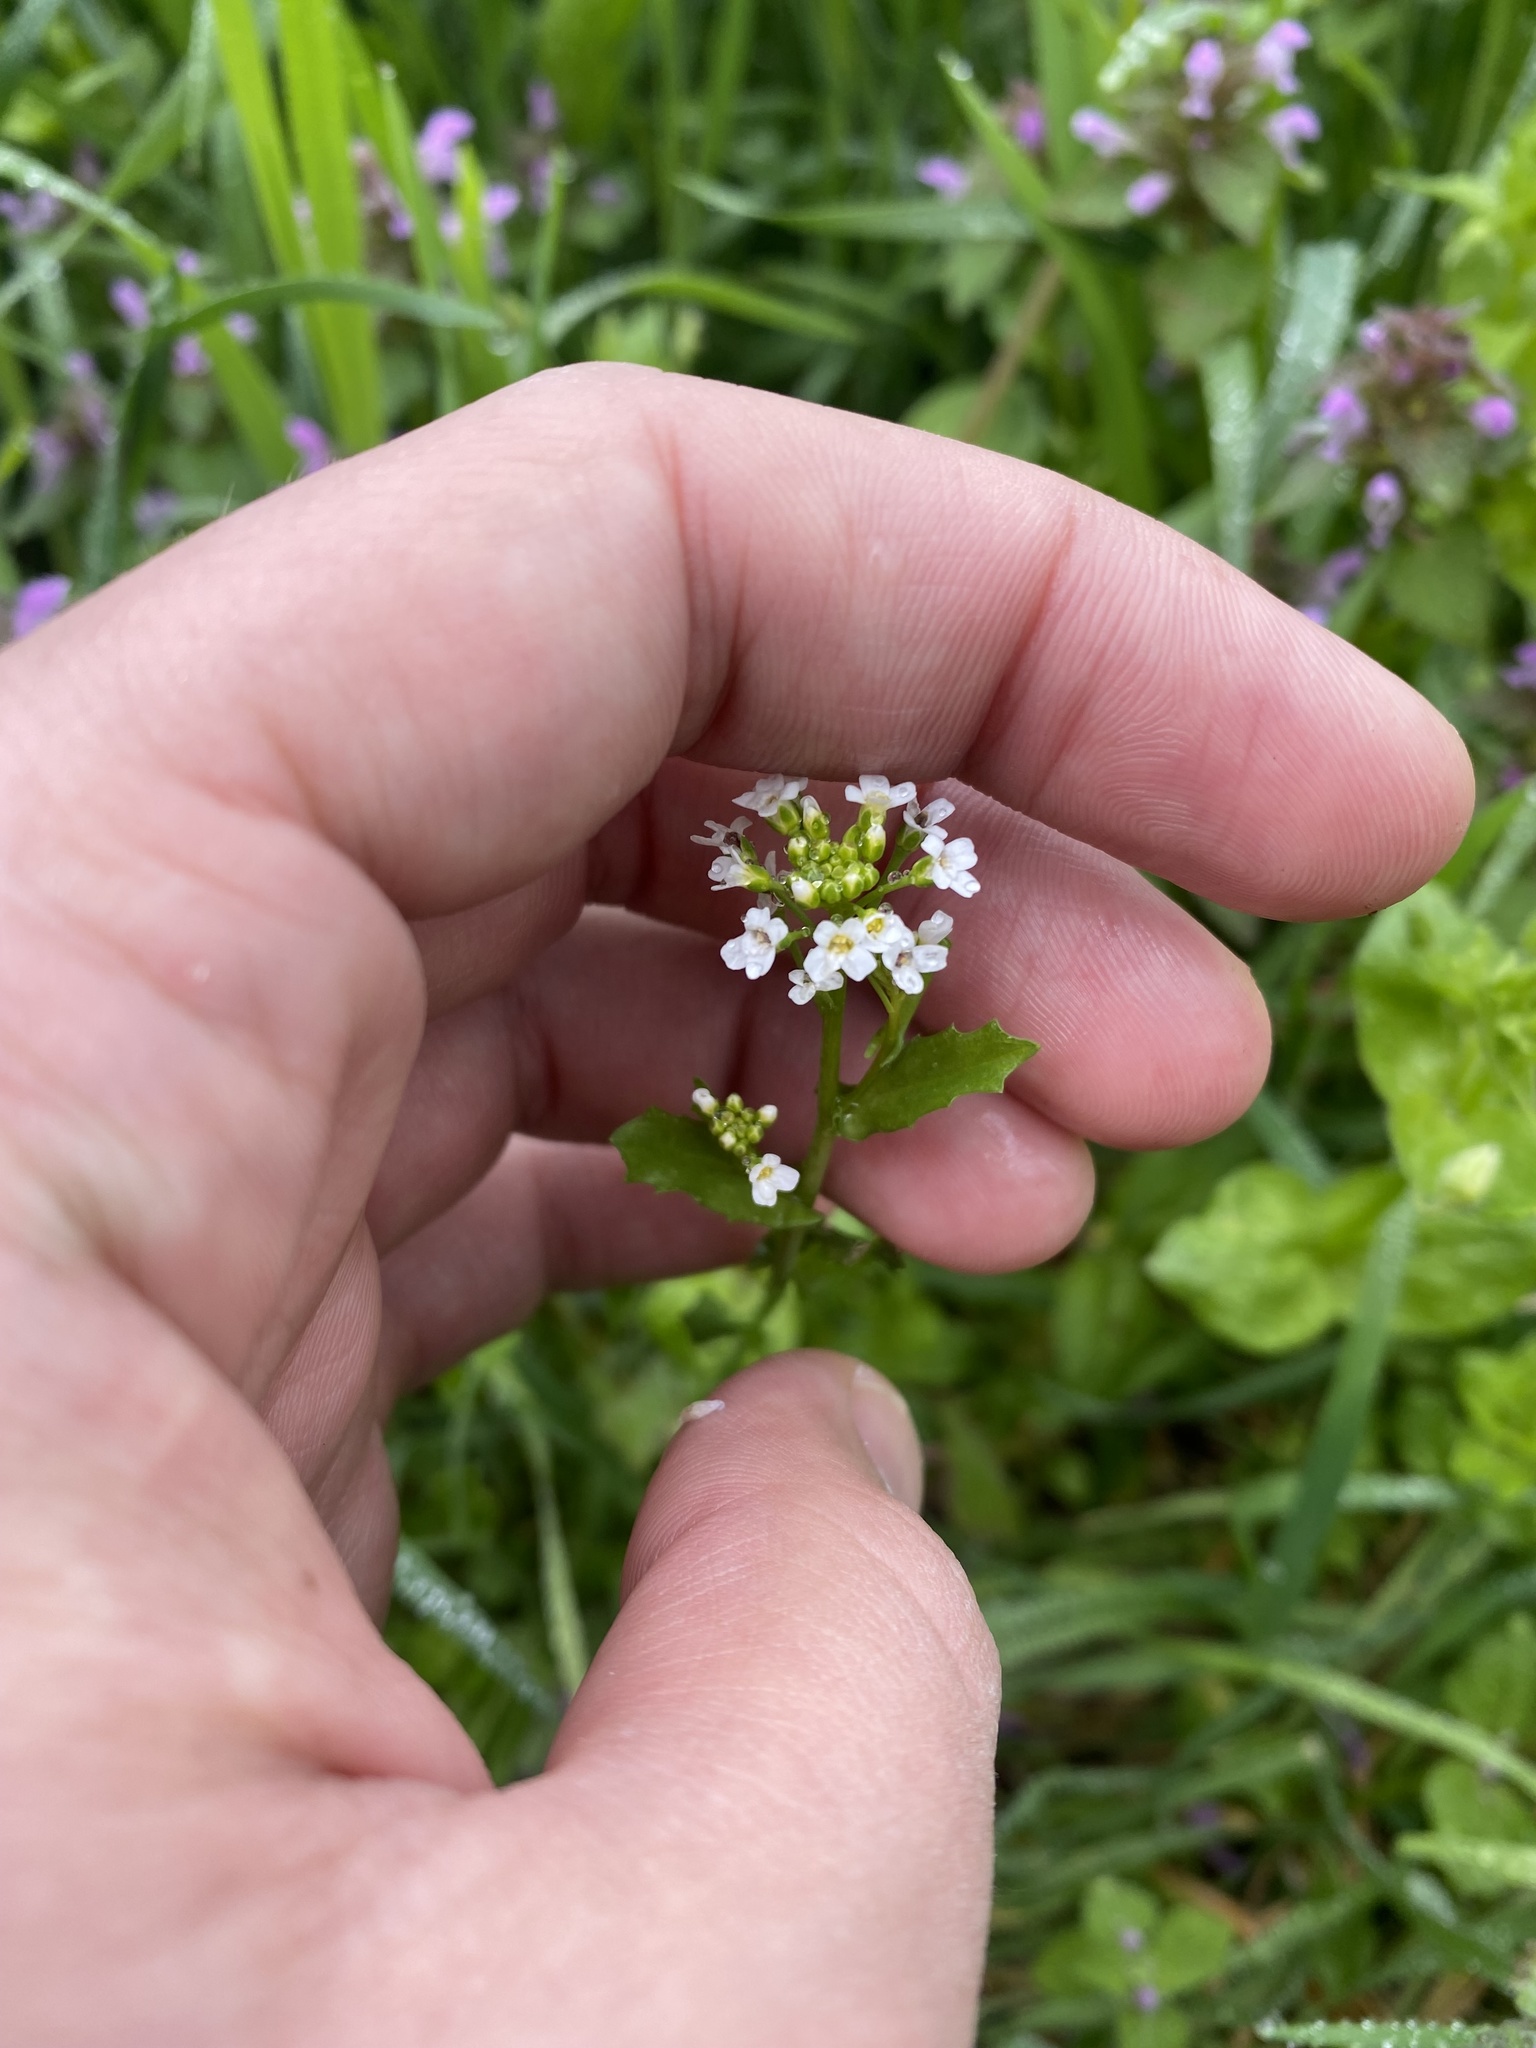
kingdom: Plantae
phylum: Tracheophyta
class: Magnoliopsida
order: Brassicales
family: Brassicaceae
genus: Calepina
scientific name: Calepina irregularis
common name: White ballmustard
